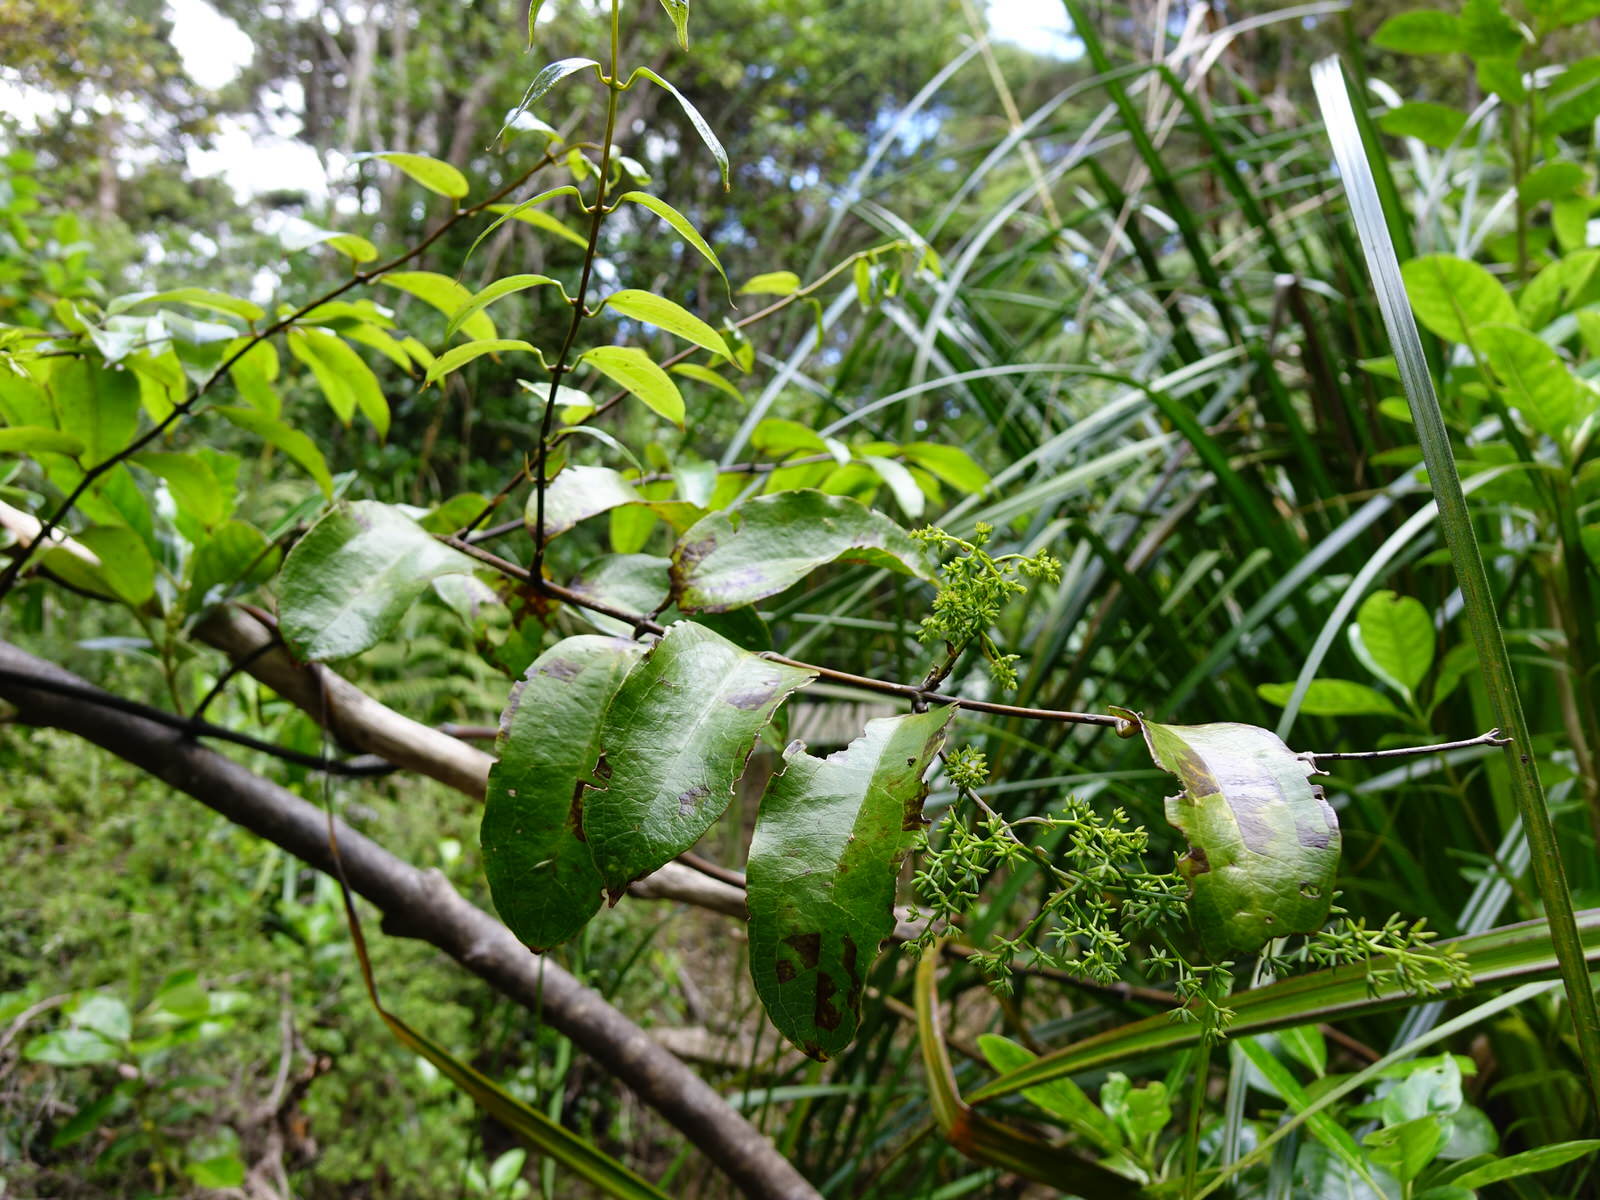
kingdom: Plantae
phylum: Tracheophyta
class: Liliopsida
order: Liliales
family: Ripogonaceae
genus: Ripogonum
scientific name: Ripogonum scandens
